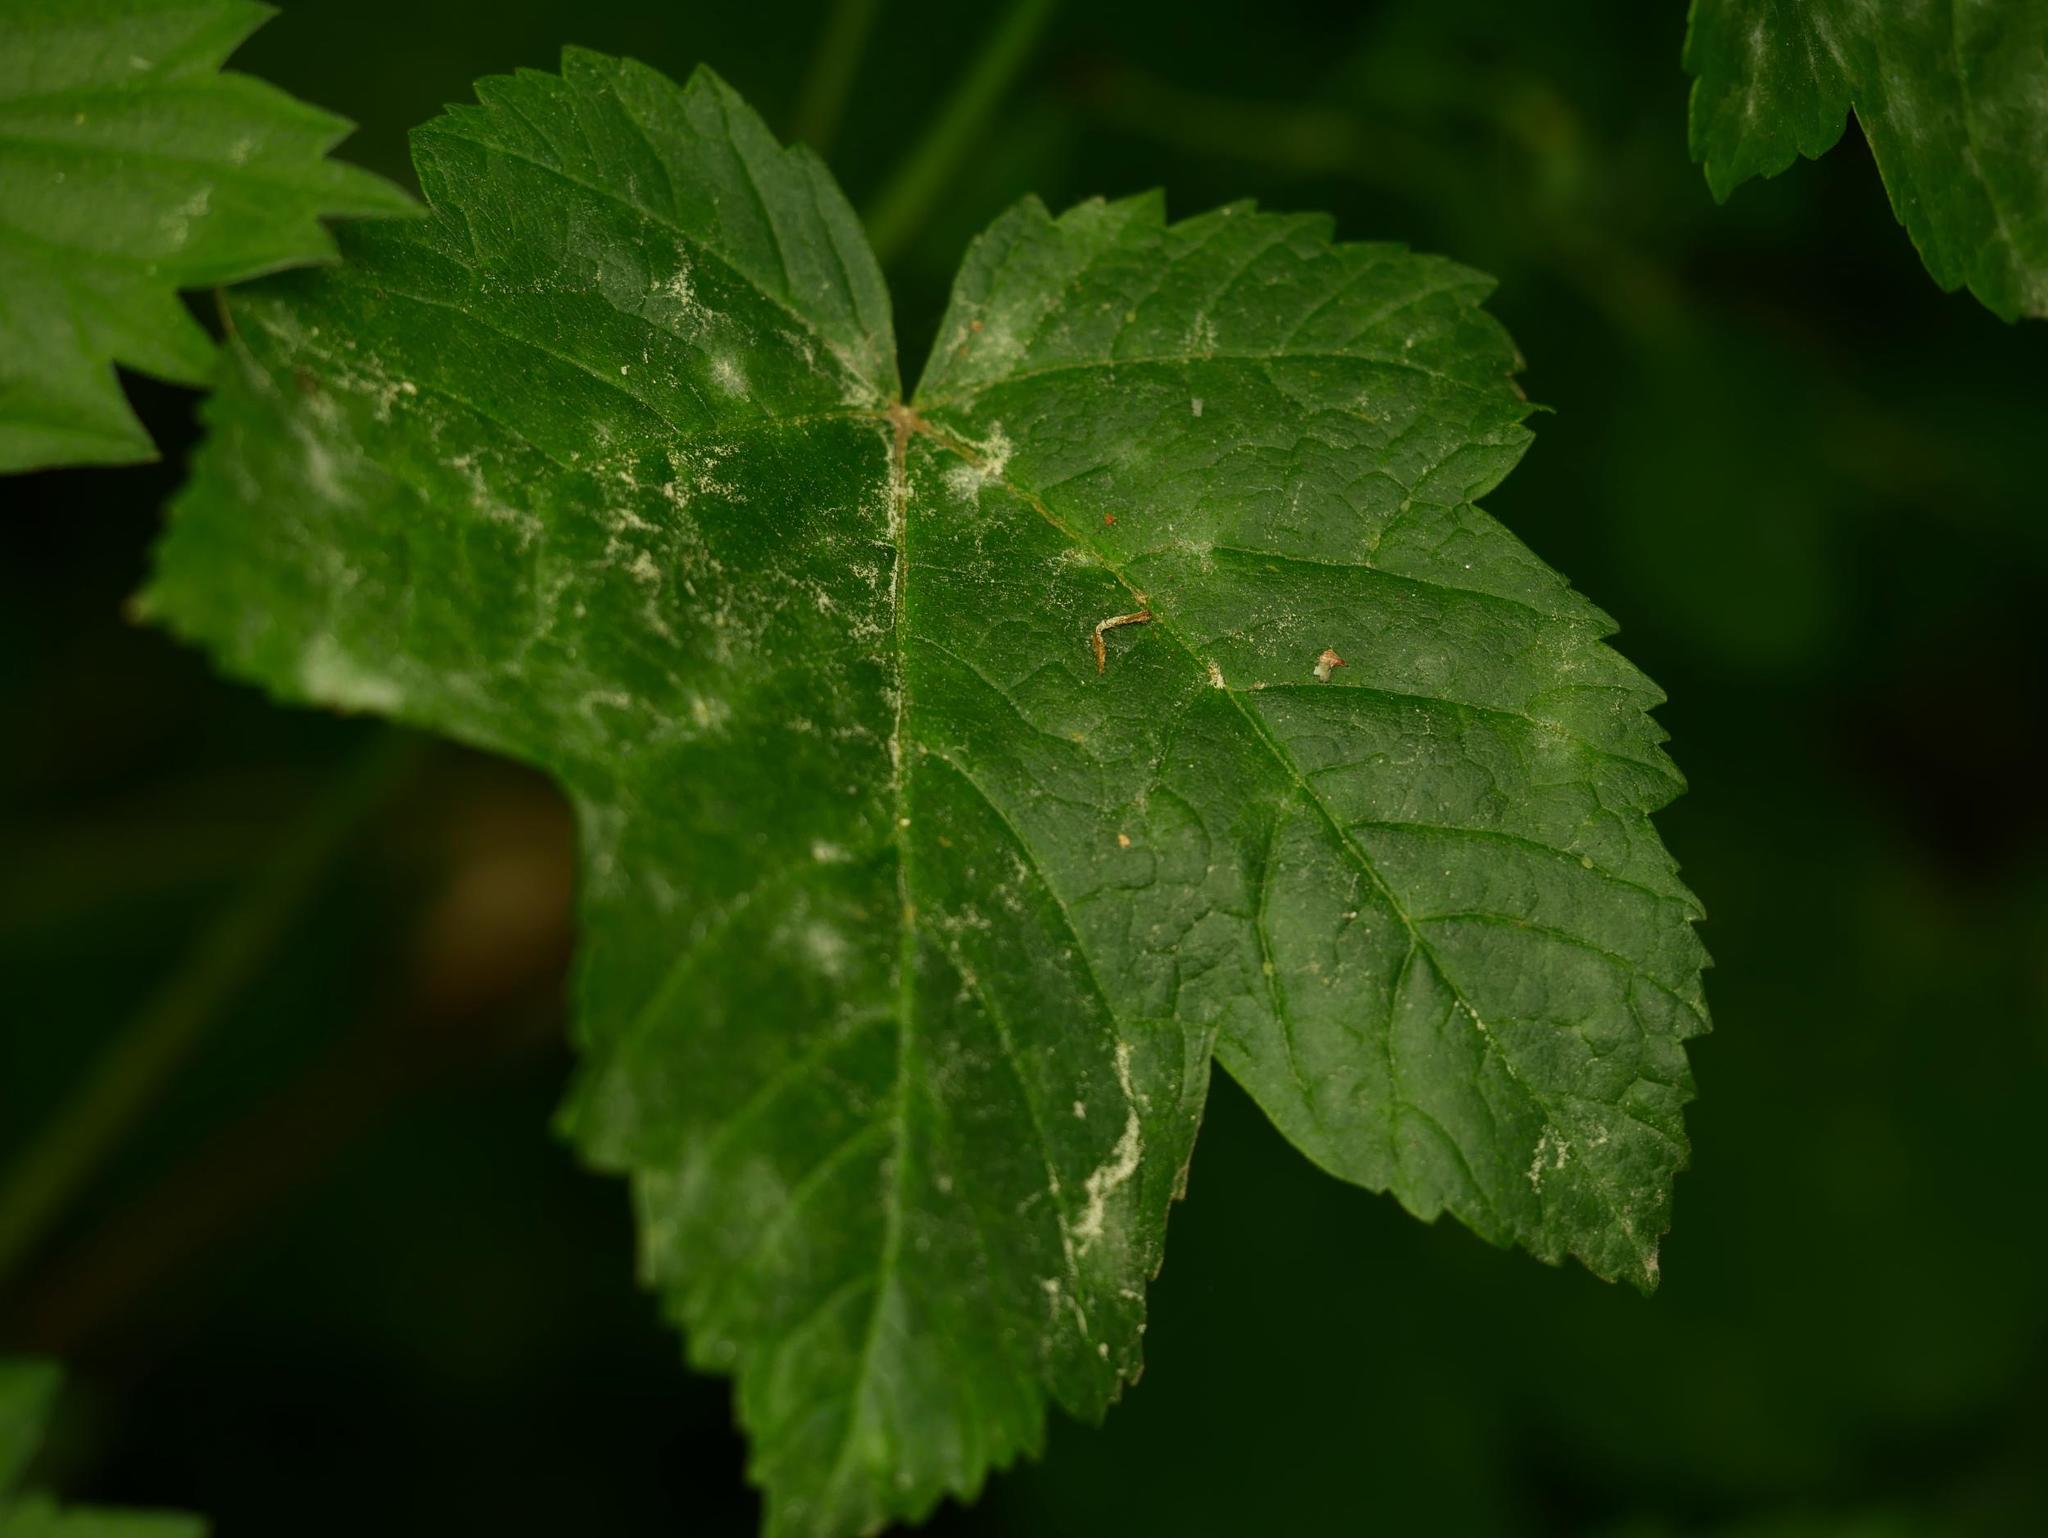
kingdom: Plantae
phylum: Tracheophyta
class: Magnoliopsida
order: Sapindales
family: Sapindaceae
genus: Acer
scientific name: Acer pseudoplatanus
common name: Sycamore
